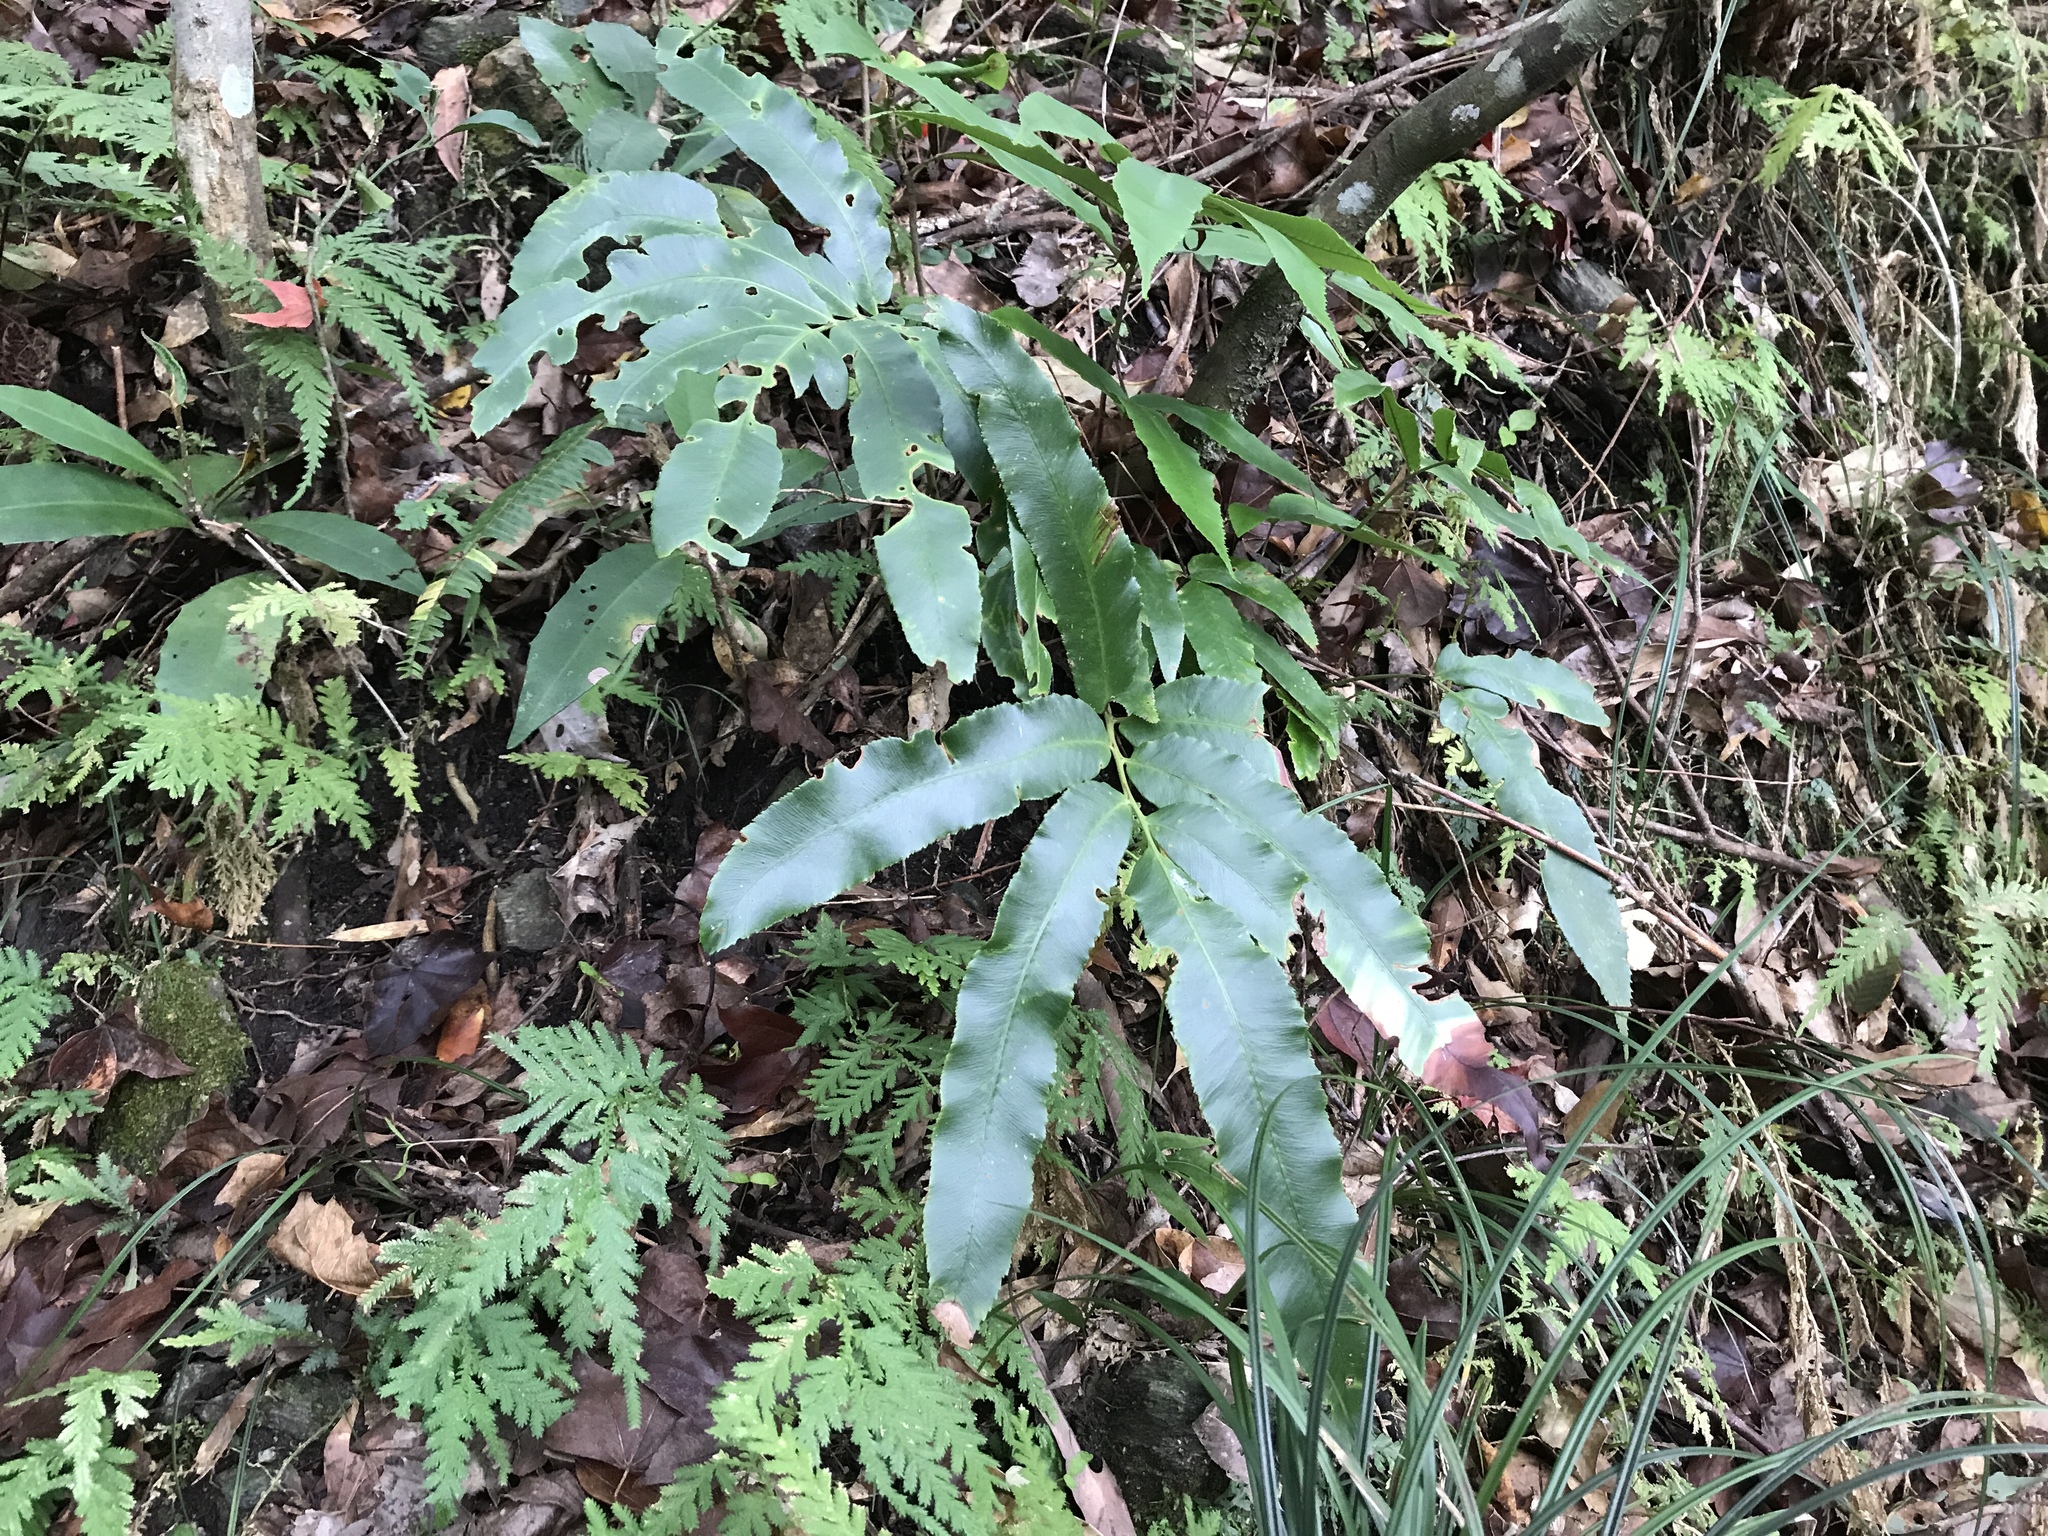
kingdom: Plantae
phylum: Tracheophyta
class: Polypodiopsida
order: Polypodiales
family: Dryopteridaceae
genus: Dryopteris
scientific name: Dryopteris enneaphylla
